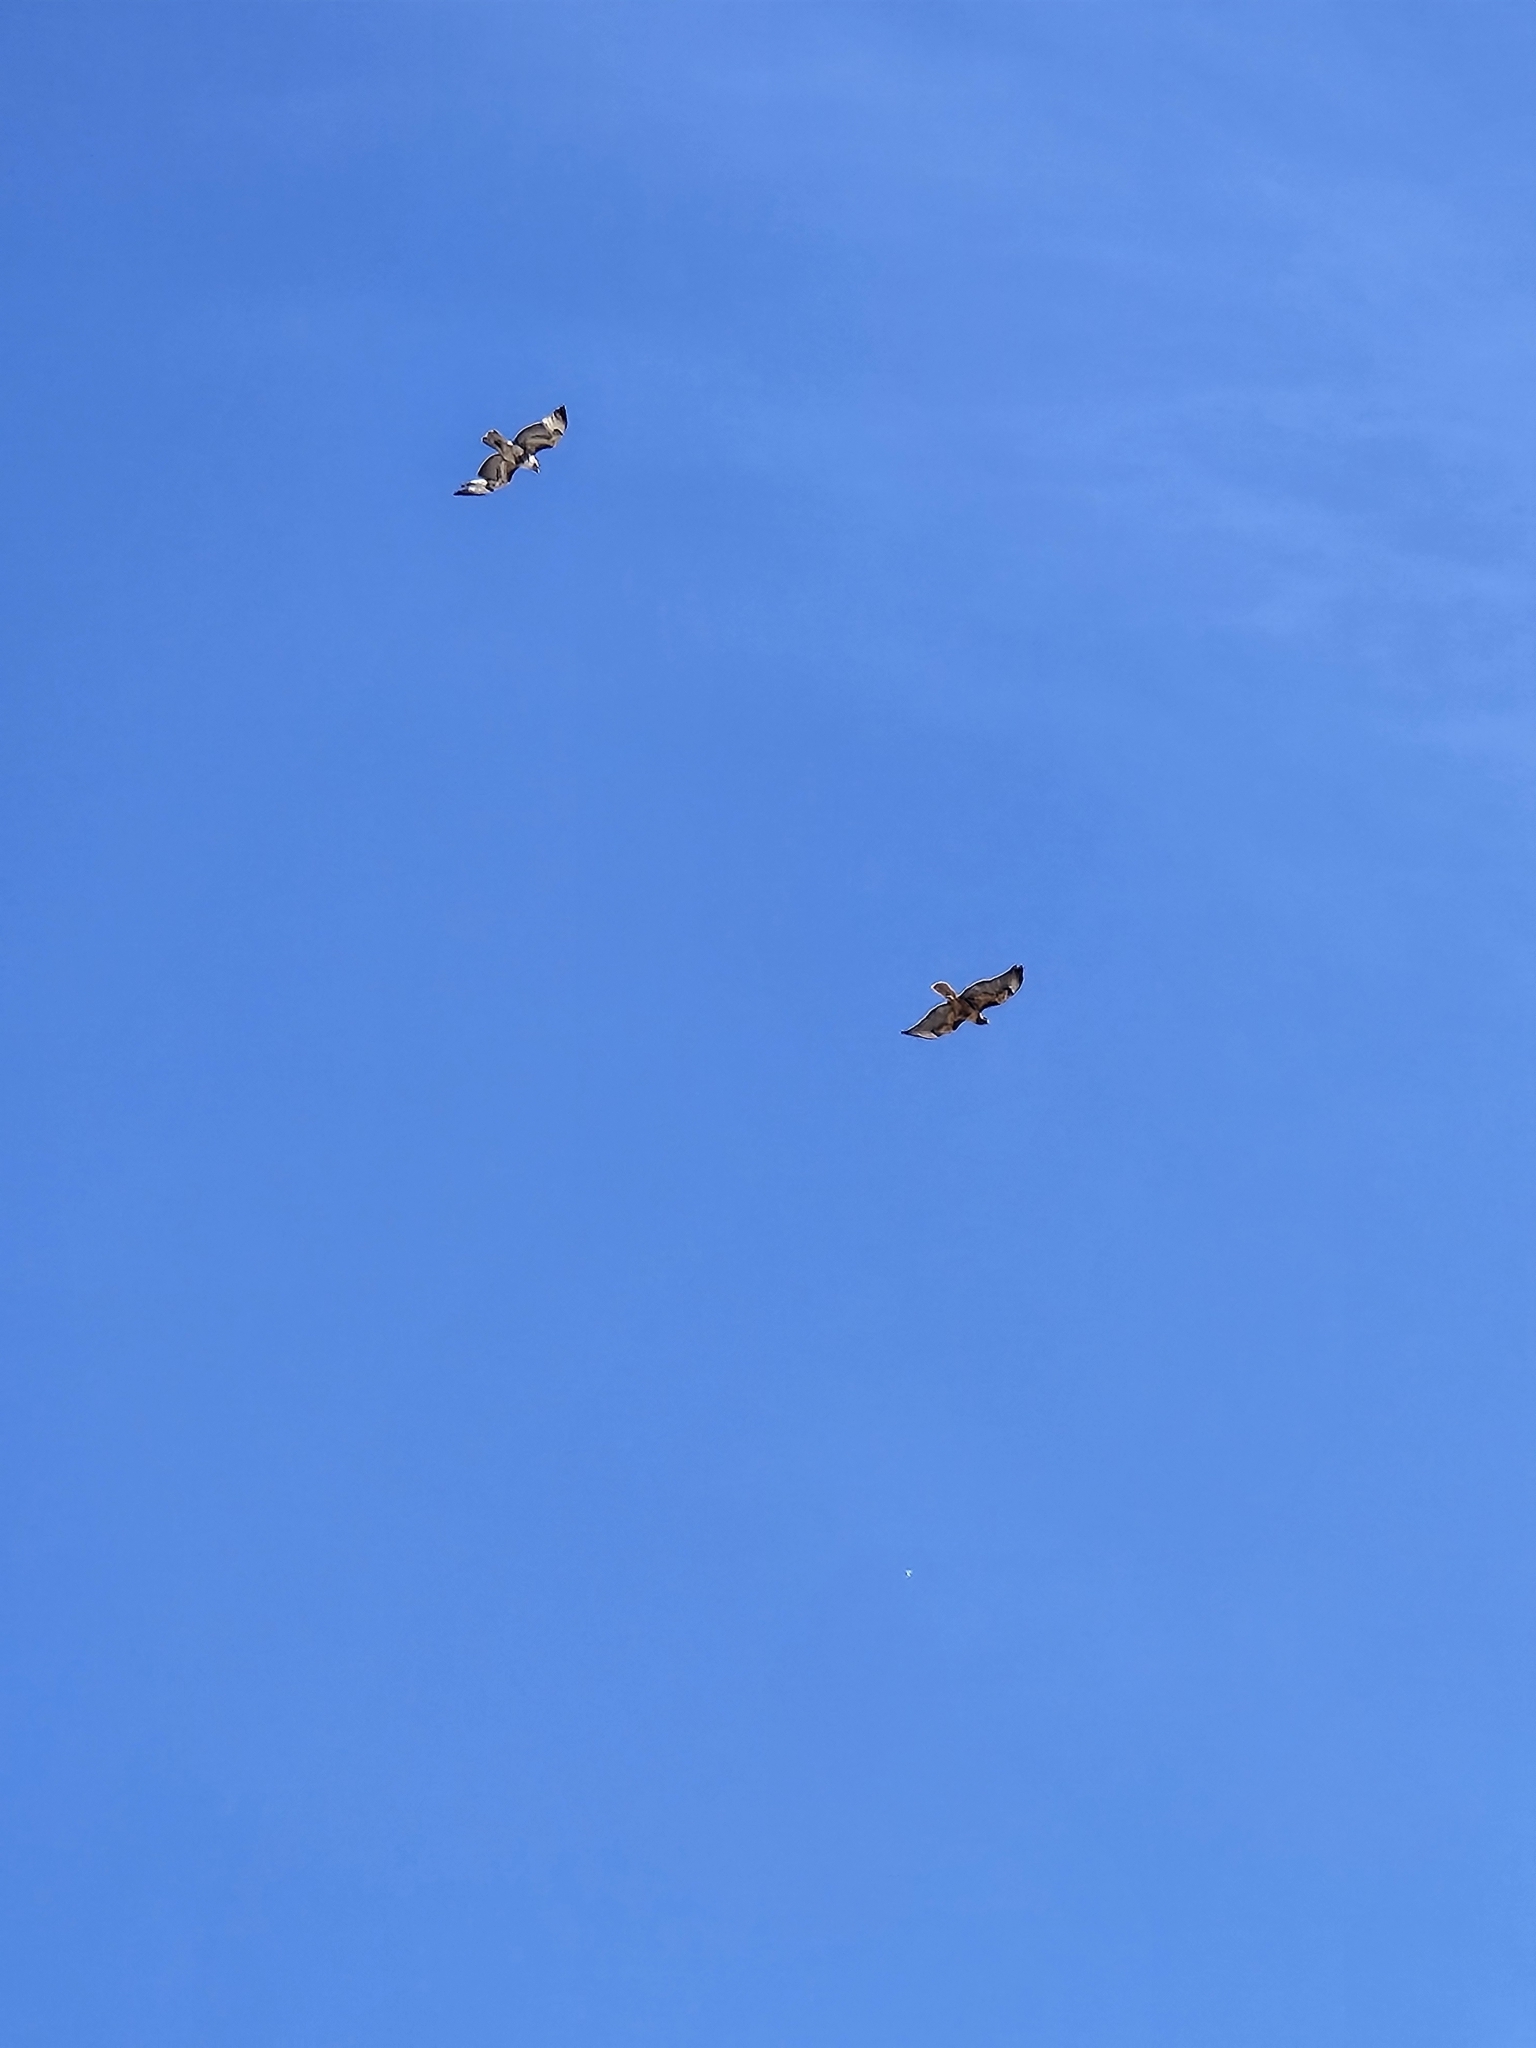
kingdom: Animalia
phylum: Chordata
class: Aves
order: Accipitriformes
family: Accipitridae
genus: Buteo
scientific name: Buteo jamaicensis
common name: Red-tailed hawk
